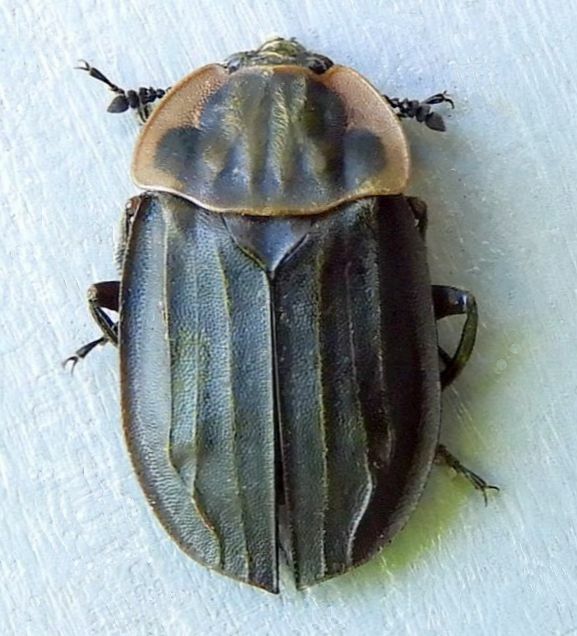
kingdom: Animalia
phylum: Arthropoda
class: Insecta
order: Coleoptera
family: Staphylinidae
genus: Oiceoptoma
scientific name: Oiceoptoma noveboracense
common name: Margined carrion beetle
